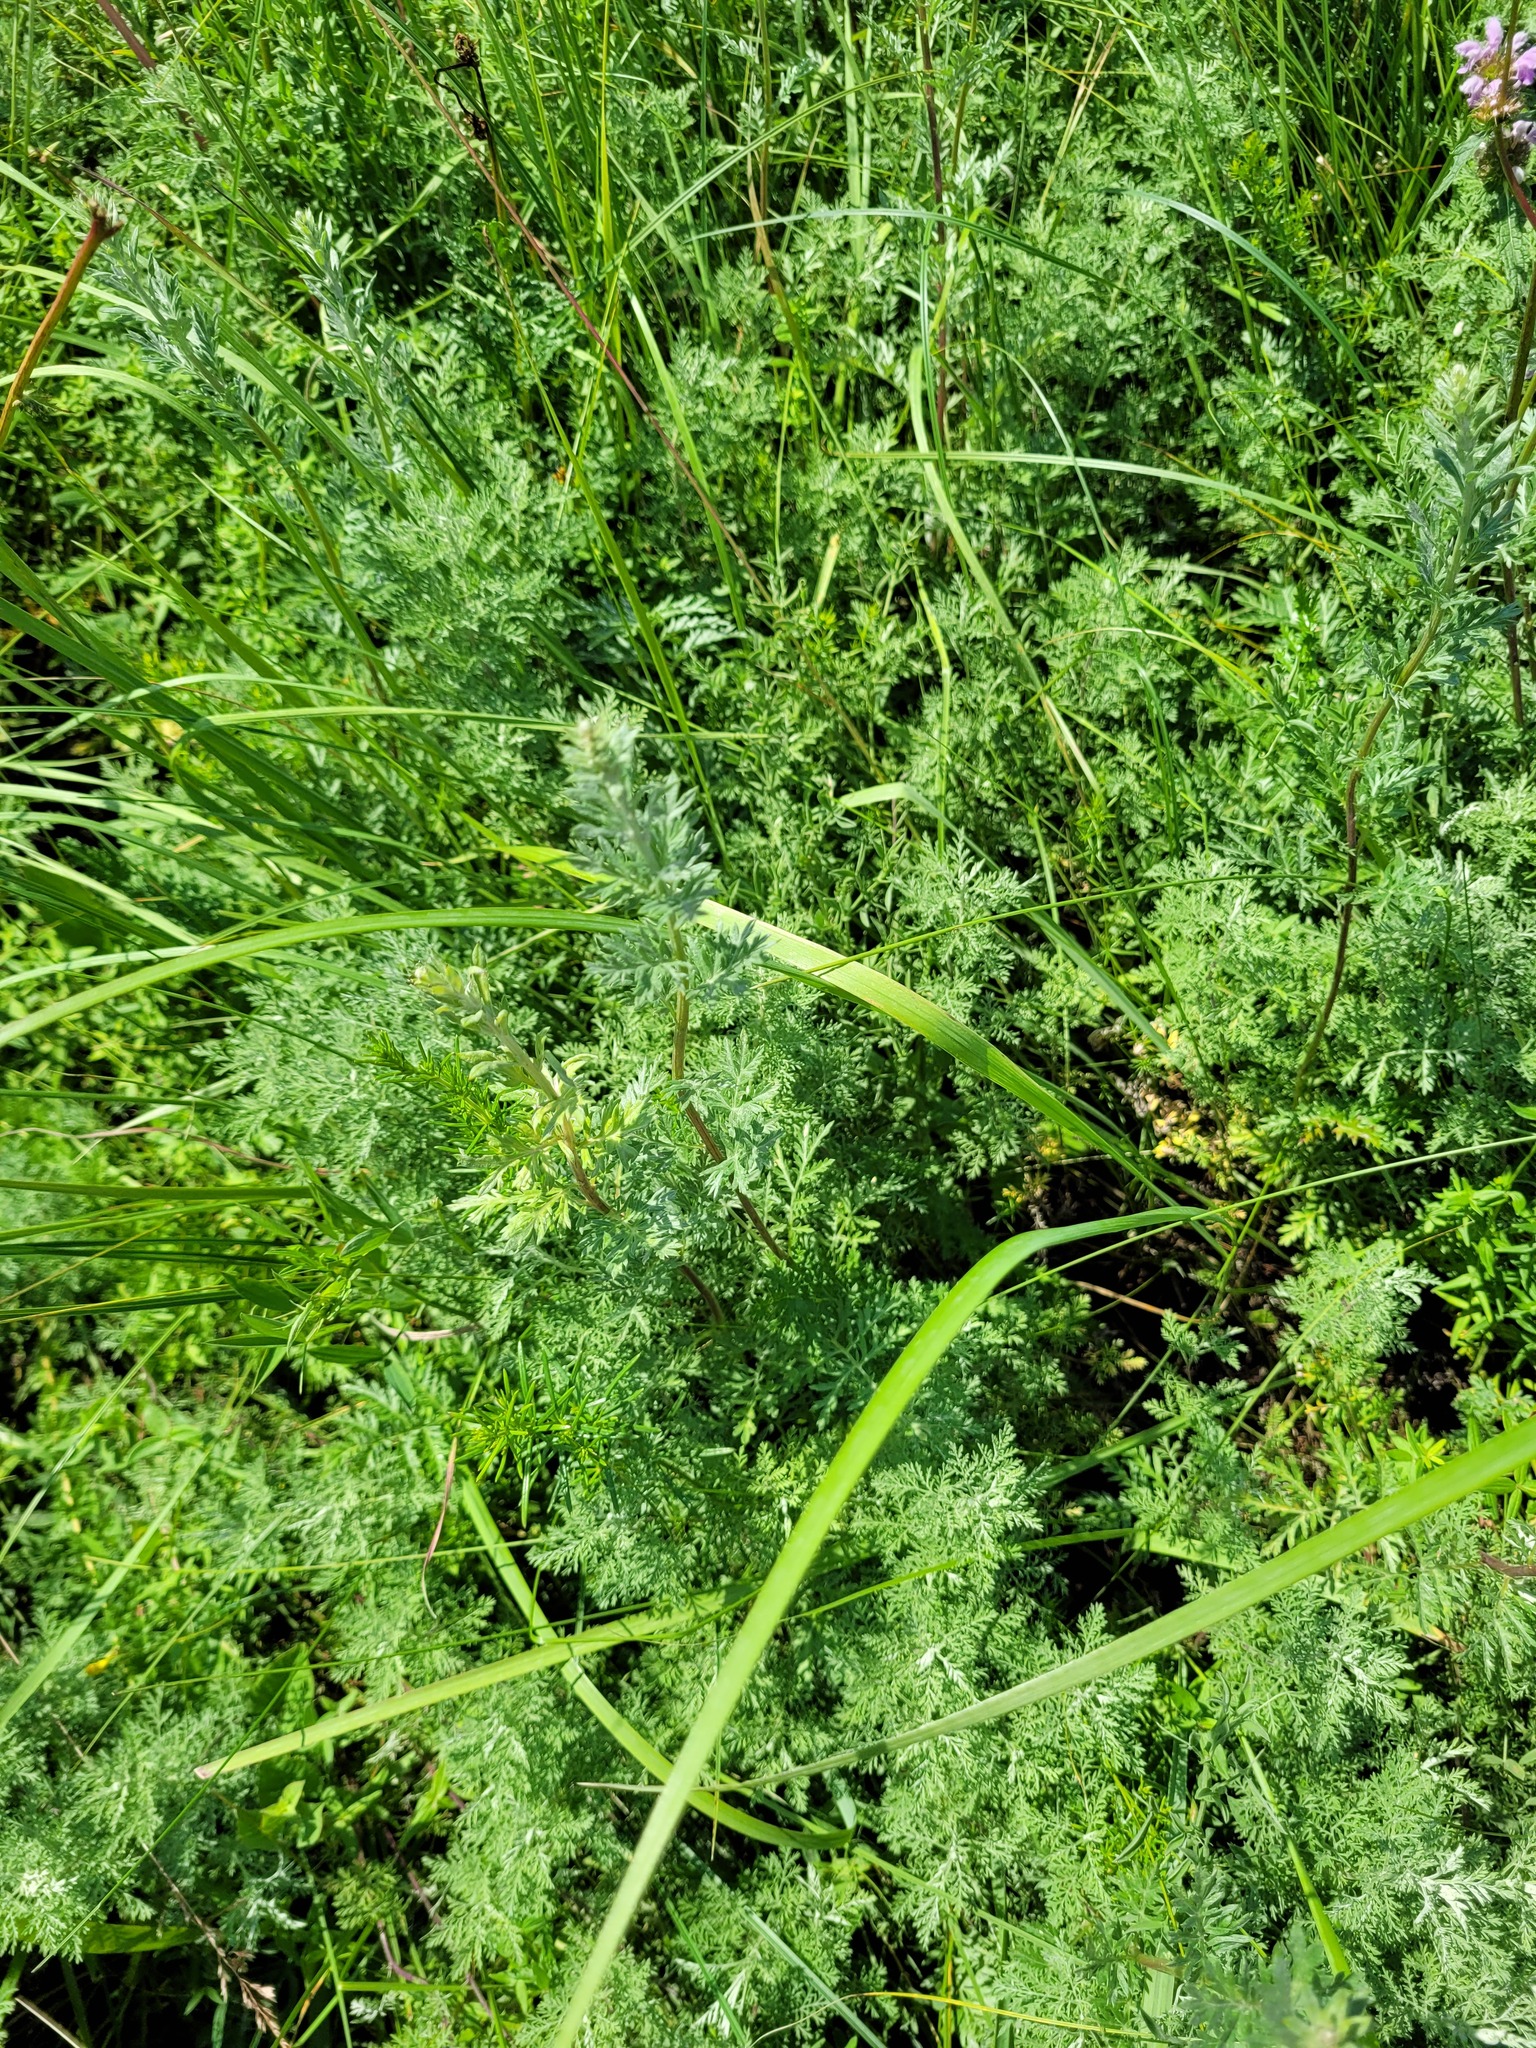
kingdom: Plantae
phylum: Tracheophyta
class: Magnoliopsida
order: Asterales
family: Asteraceae
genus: Artemisia
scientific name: Artemisia armeniaca
